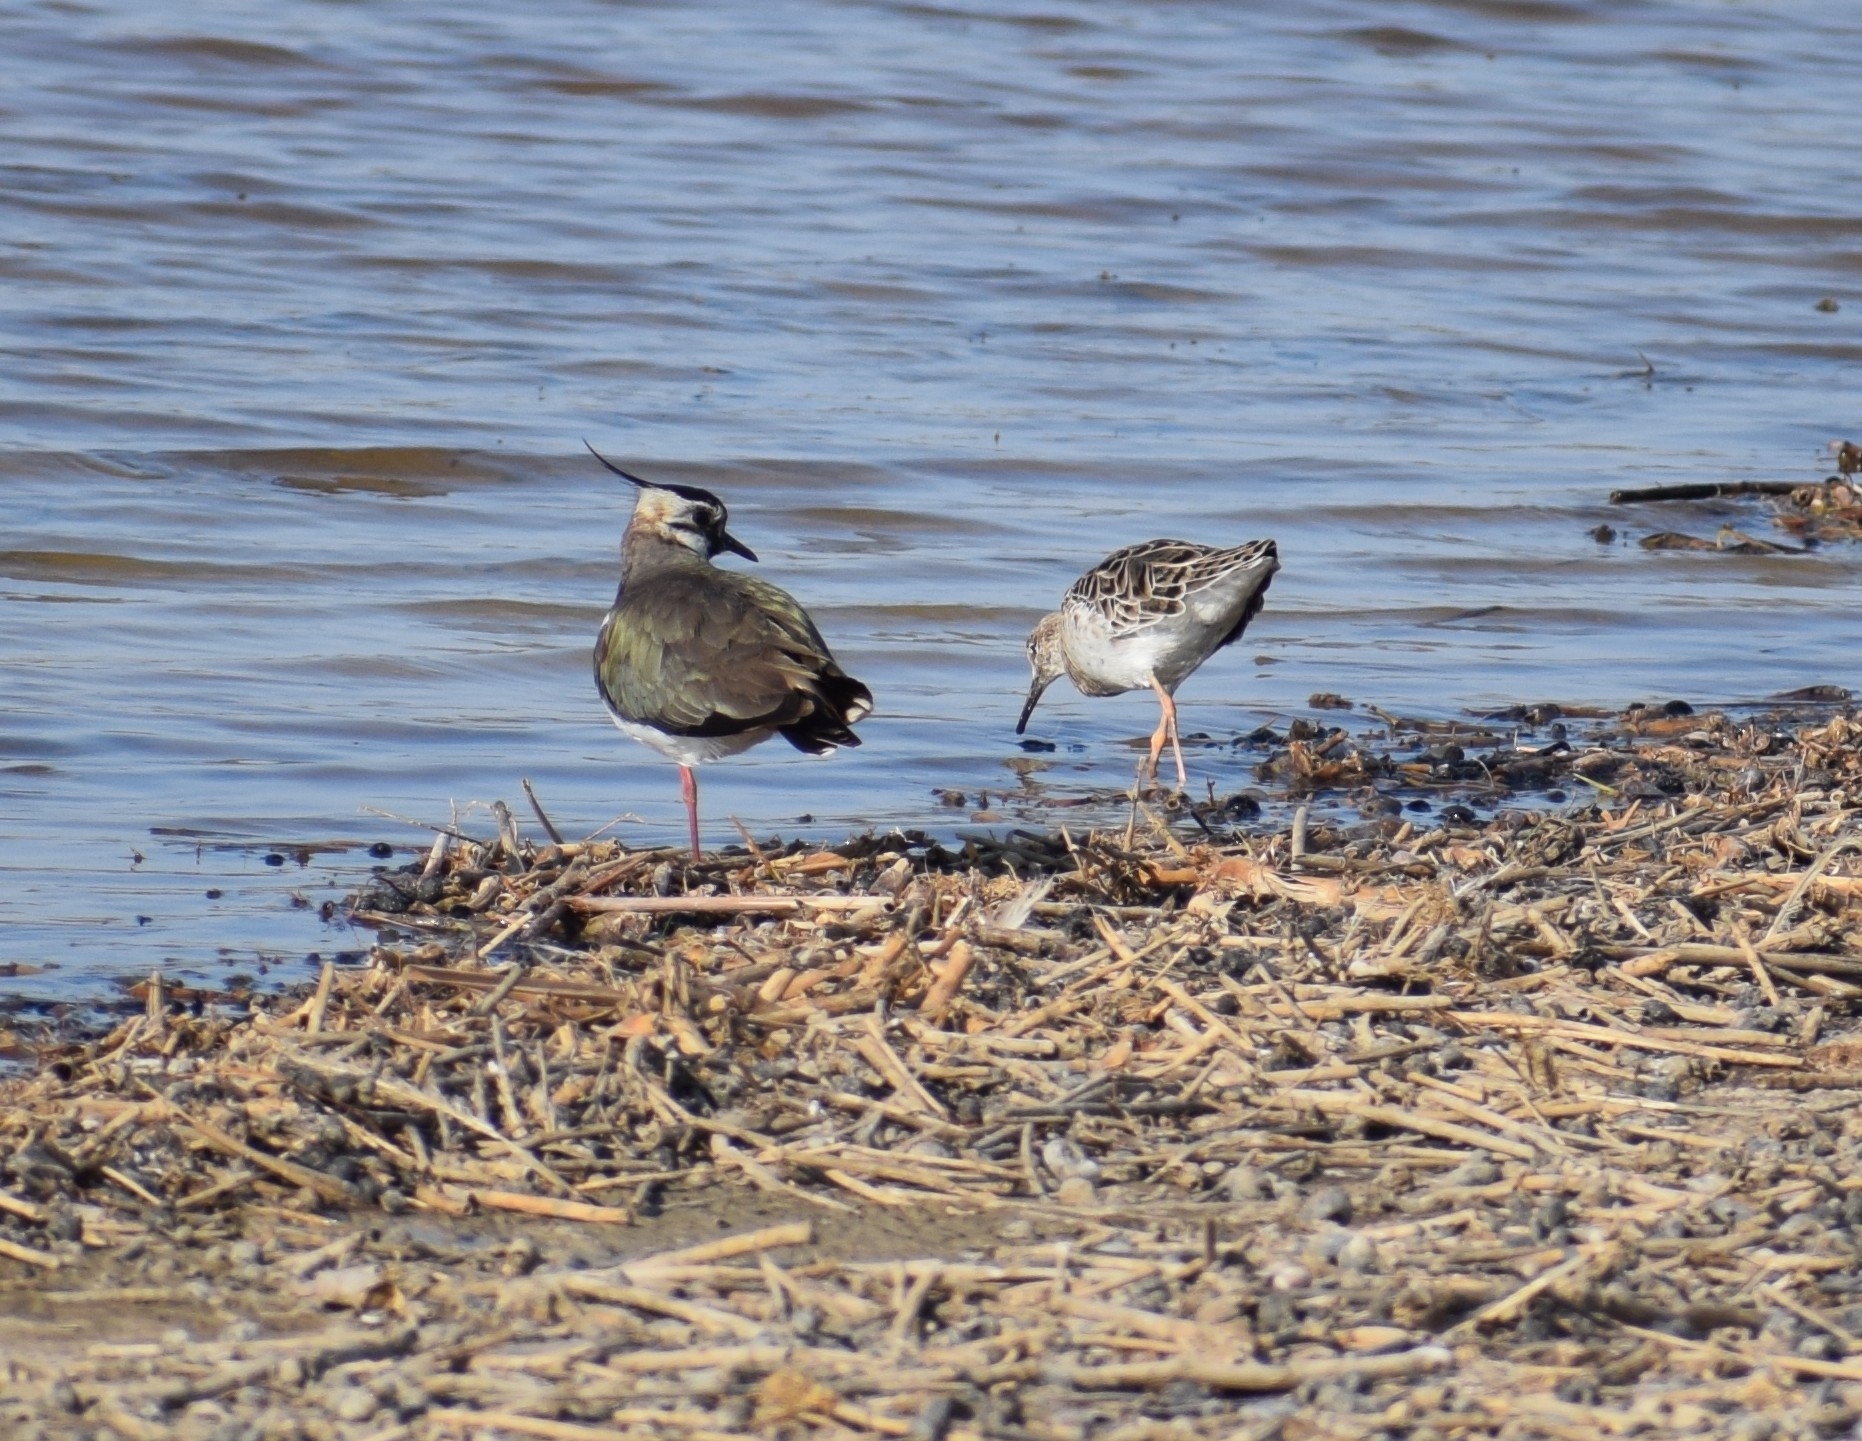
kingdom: Animalia
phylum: Chordata
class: Aves
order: Charadriiformes
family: Charadriidae
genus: Vanellus
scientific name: Vanellus vanellus
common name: Northern lapwing
